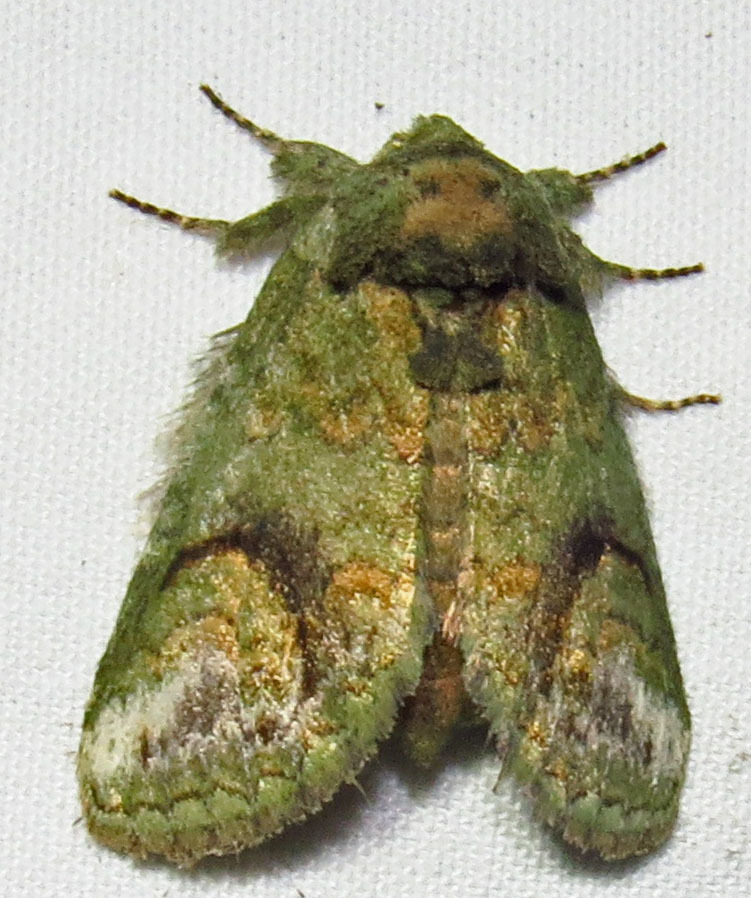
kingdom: Animalia
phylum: Arthropoda
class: Insecta
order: Lepidoptera
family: Notodontidae
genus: Rifargia
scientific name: Rifargia
